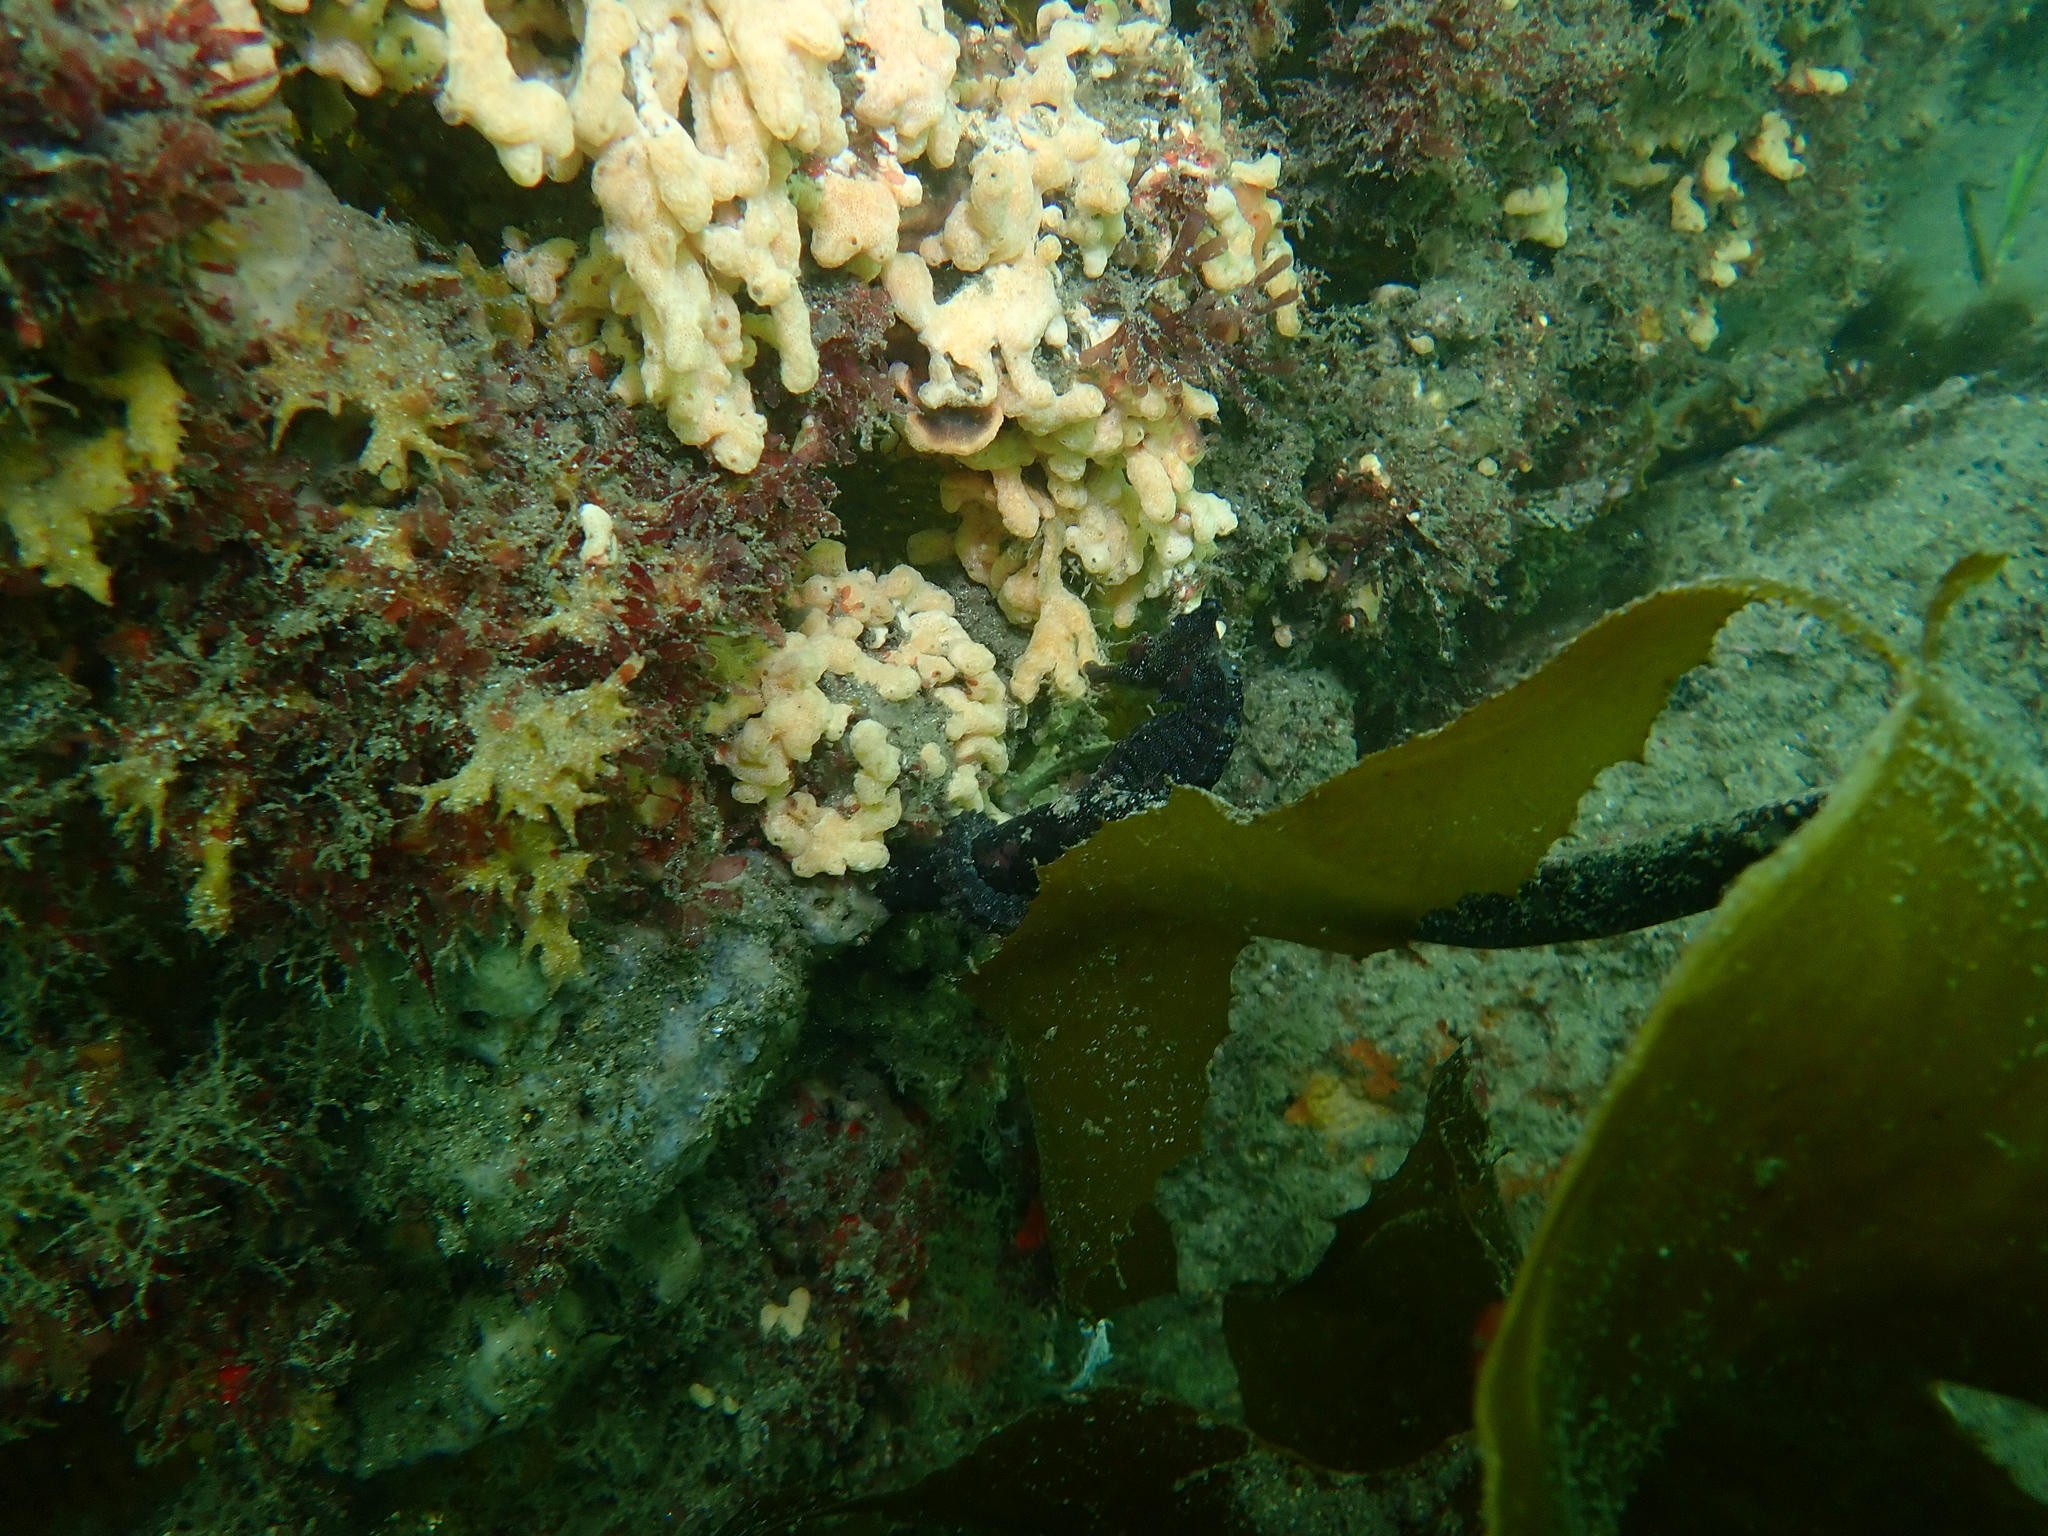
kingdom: Animalia
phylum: Chordata
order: Syngnathiformes
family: Syngnathidae
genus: Hippocampus
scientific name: Hippocampus whitei
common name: New holland seahorse
